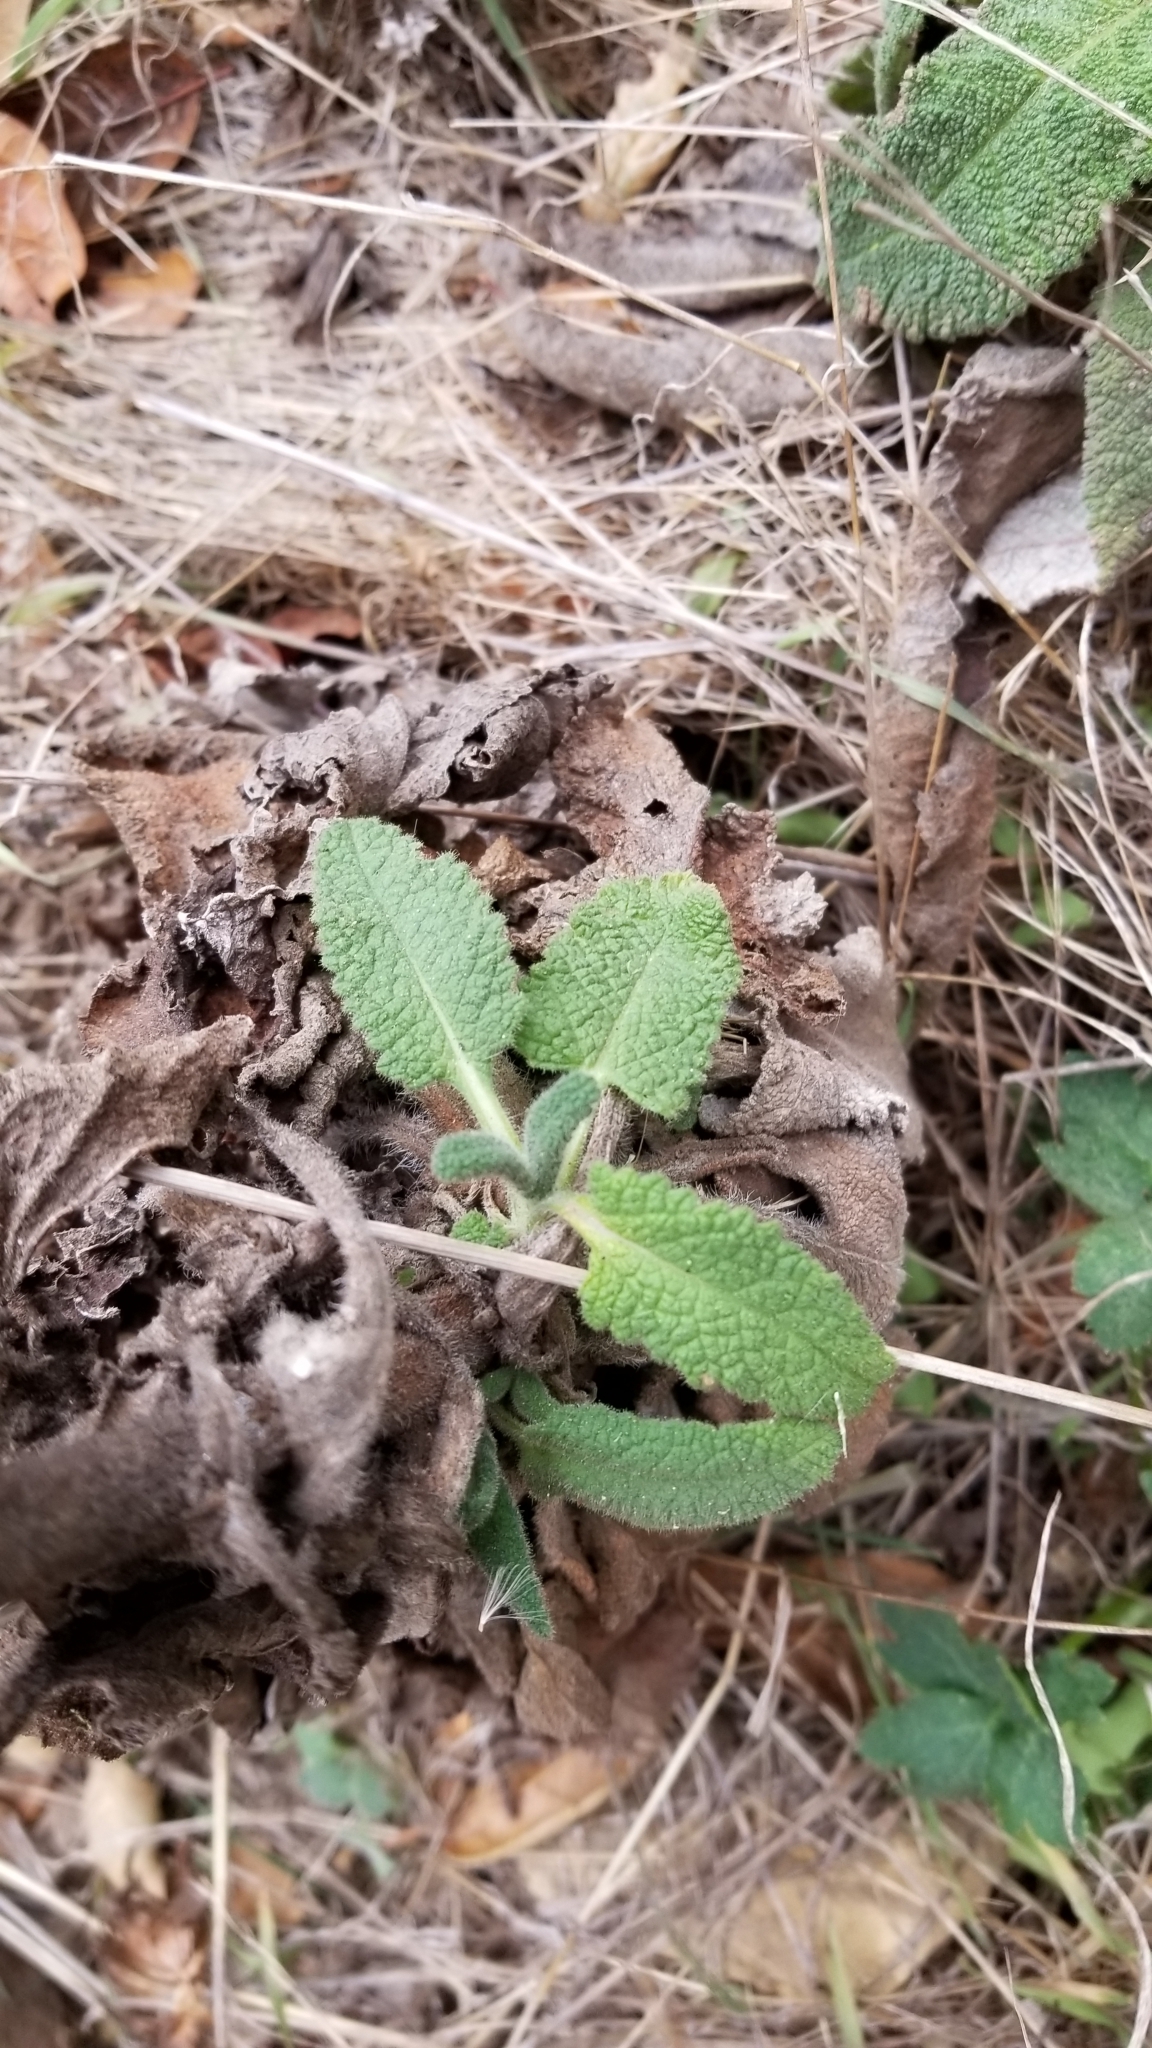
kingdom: Plantae
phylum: Tracheophyta
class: Magnoliopsida
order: Lamiales
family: Lamiaceae
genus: Salvia
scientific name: Salvia spathacea
